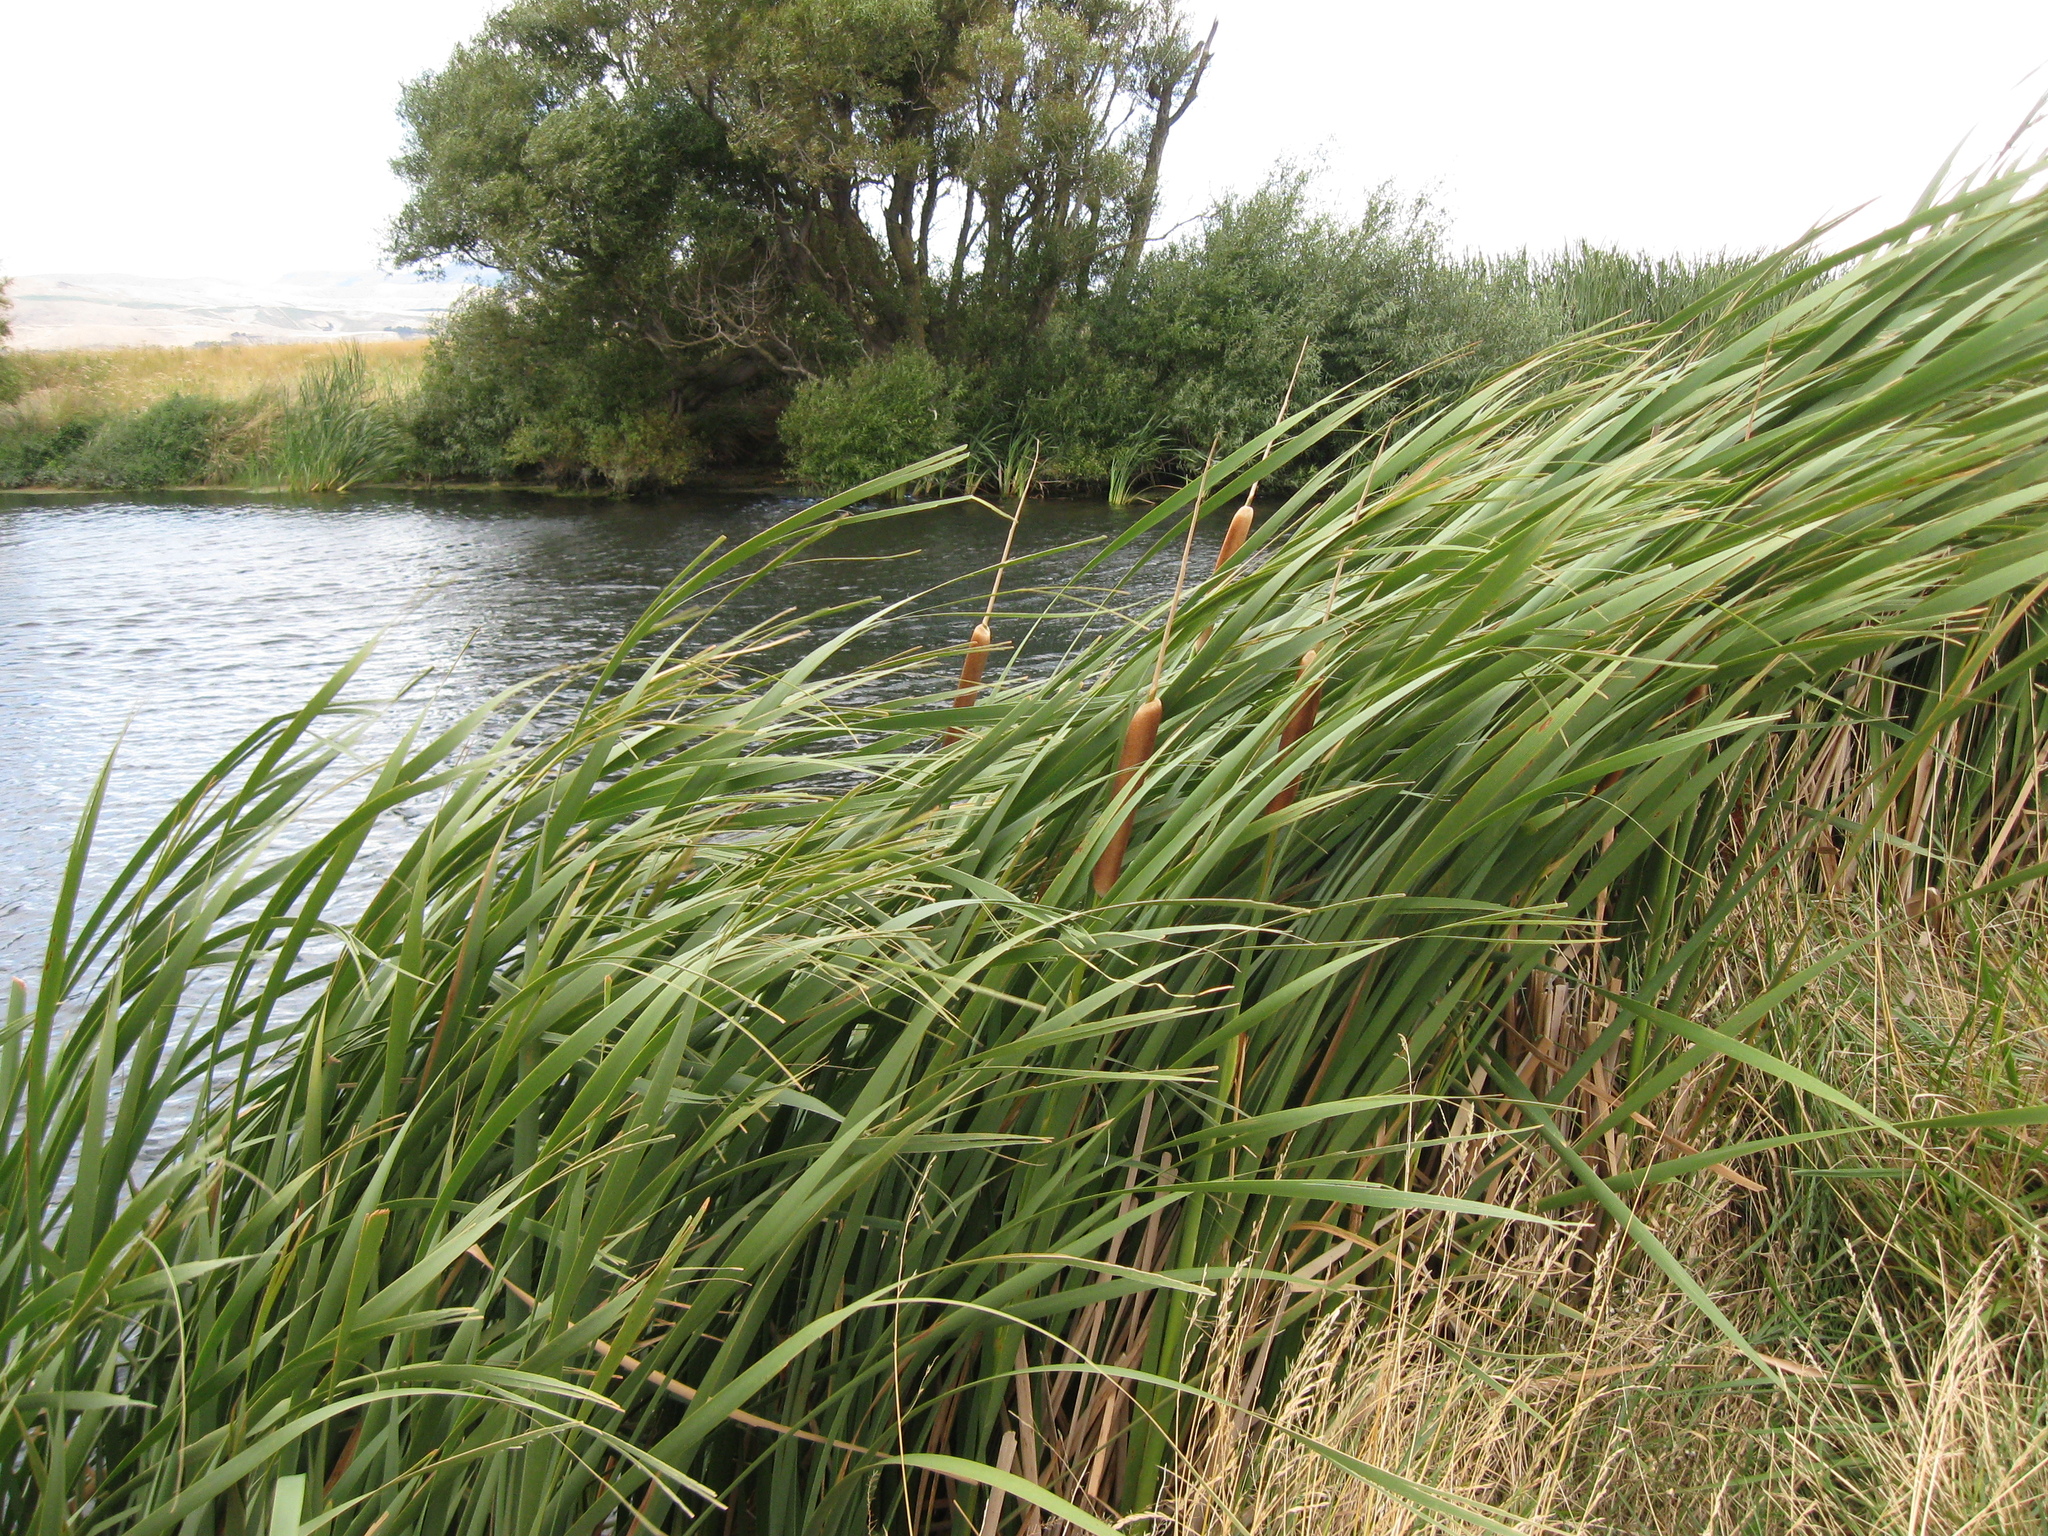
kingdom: Plantae
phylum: Tracheophyta
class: Liliopsida
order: Poales
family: Typhaceae
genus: Typha
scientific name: Typha orientalis
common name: Bullrush
